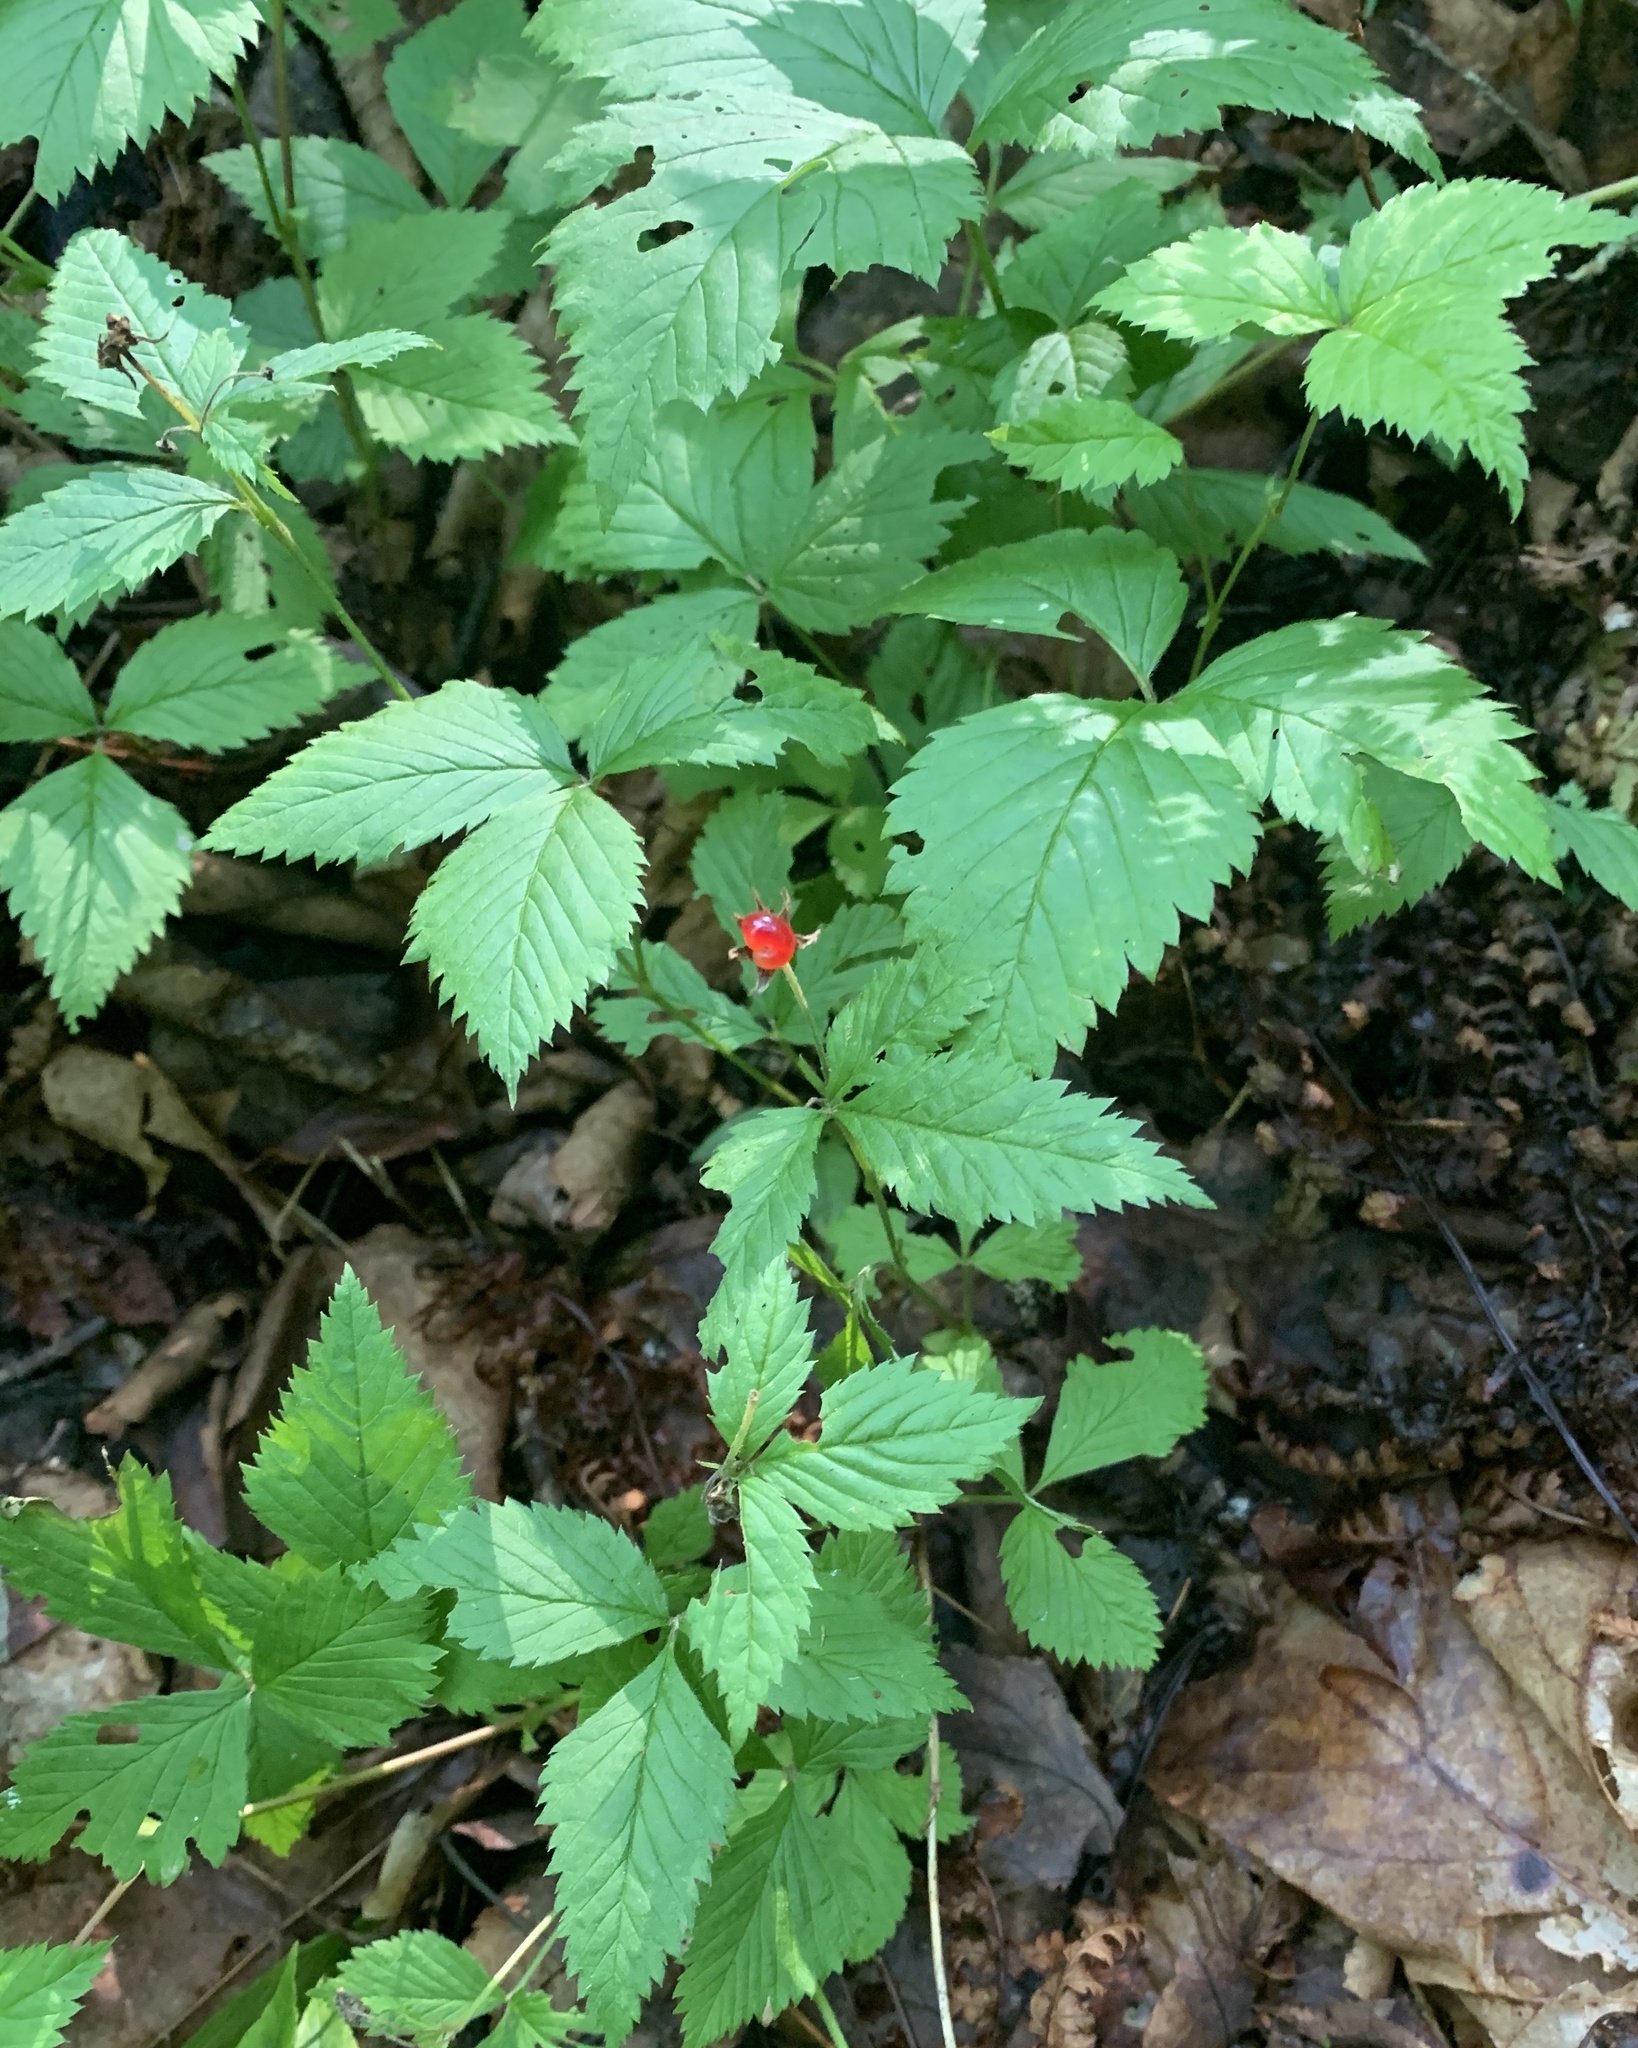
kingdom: Plantae
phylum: Tracheophyta
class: Magnoliopsida
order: Rosales
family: Rosaceae
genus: Rubus
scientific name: Rubus pubescens
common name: Dwarf raspberry
